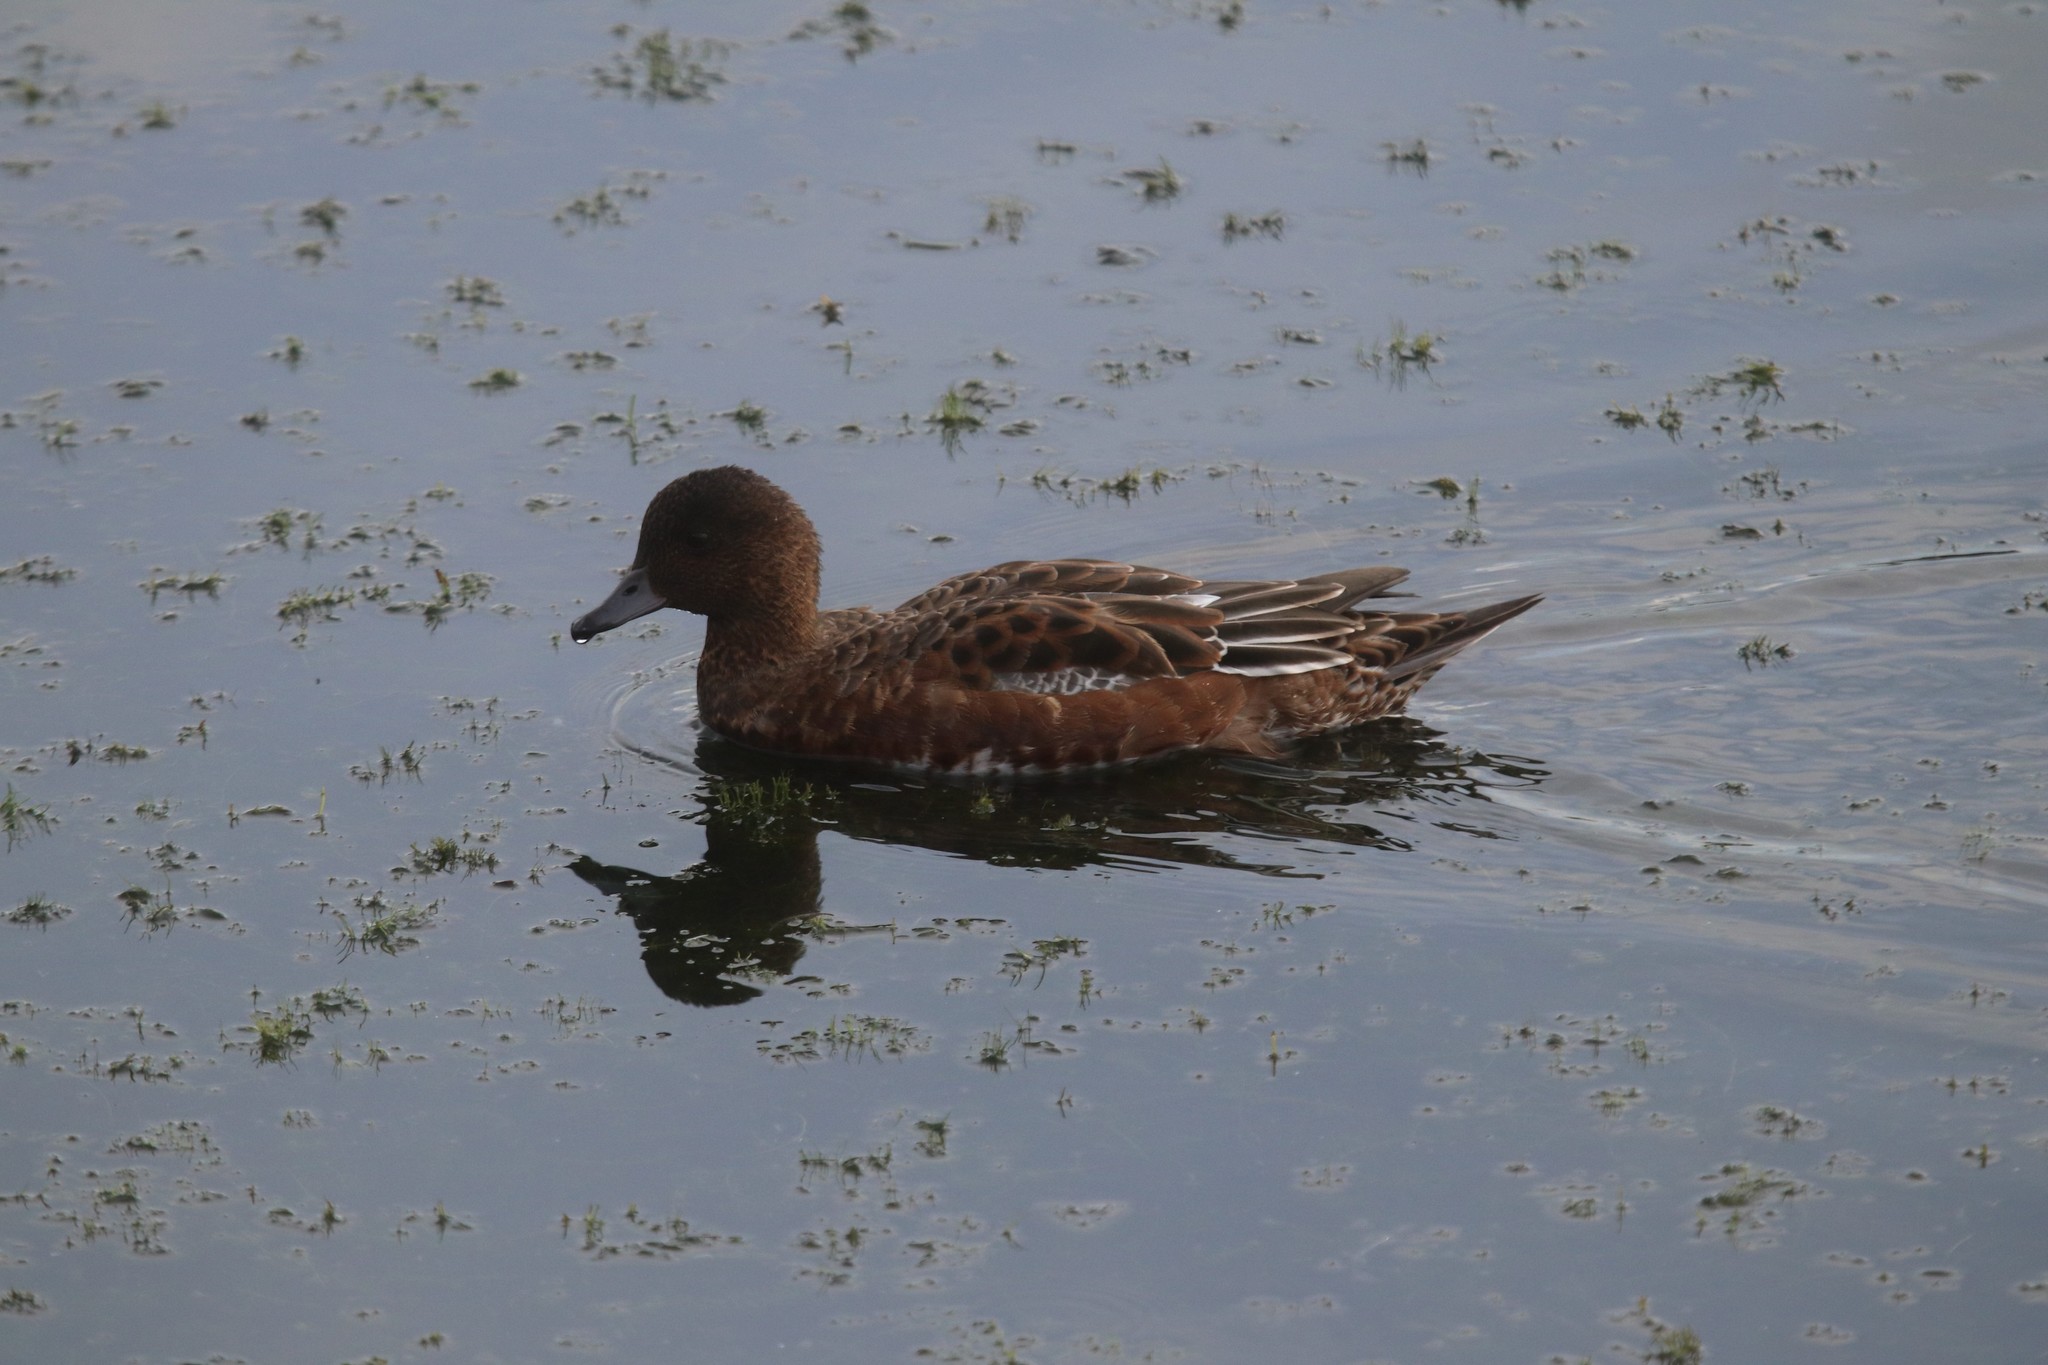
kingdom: Animalia
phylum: Chordata
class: Aves
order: Anseriformes
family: Anatidae
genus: Mareca
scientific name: Mareca penelope
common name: Eurasian wigeon
